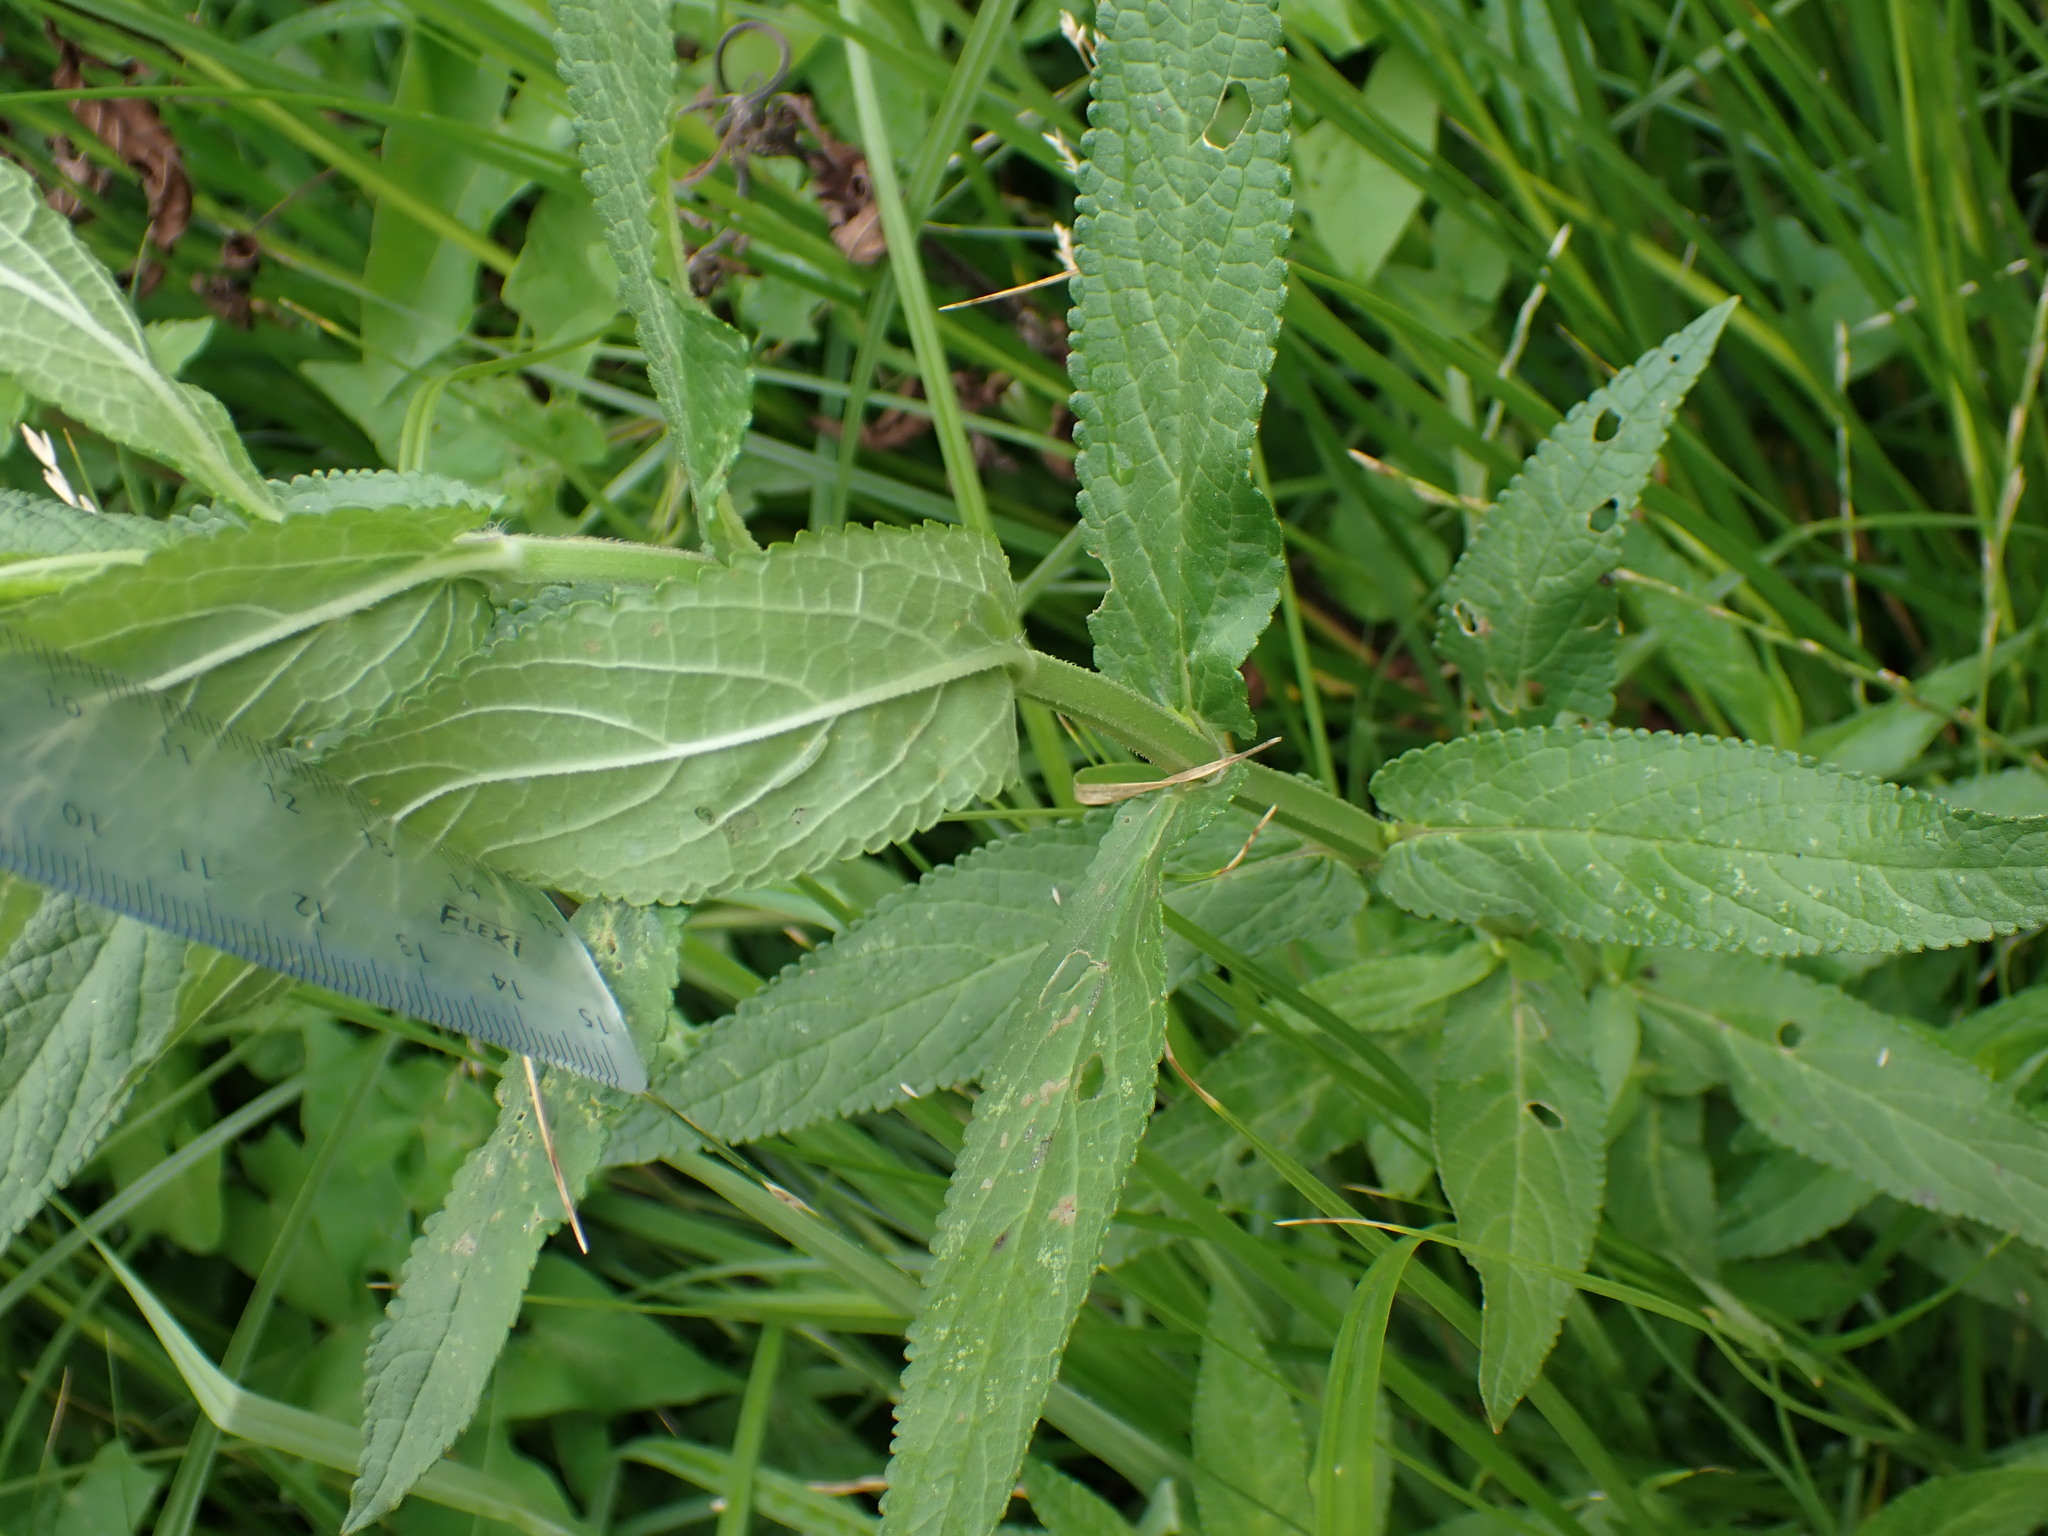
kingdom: Plantae
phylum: Tracheophyta
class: Magnoliopsida
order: Lamiales
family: Lamiaceae
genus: Stachys
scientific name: Stachys palustris
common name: Marsh woundwort
